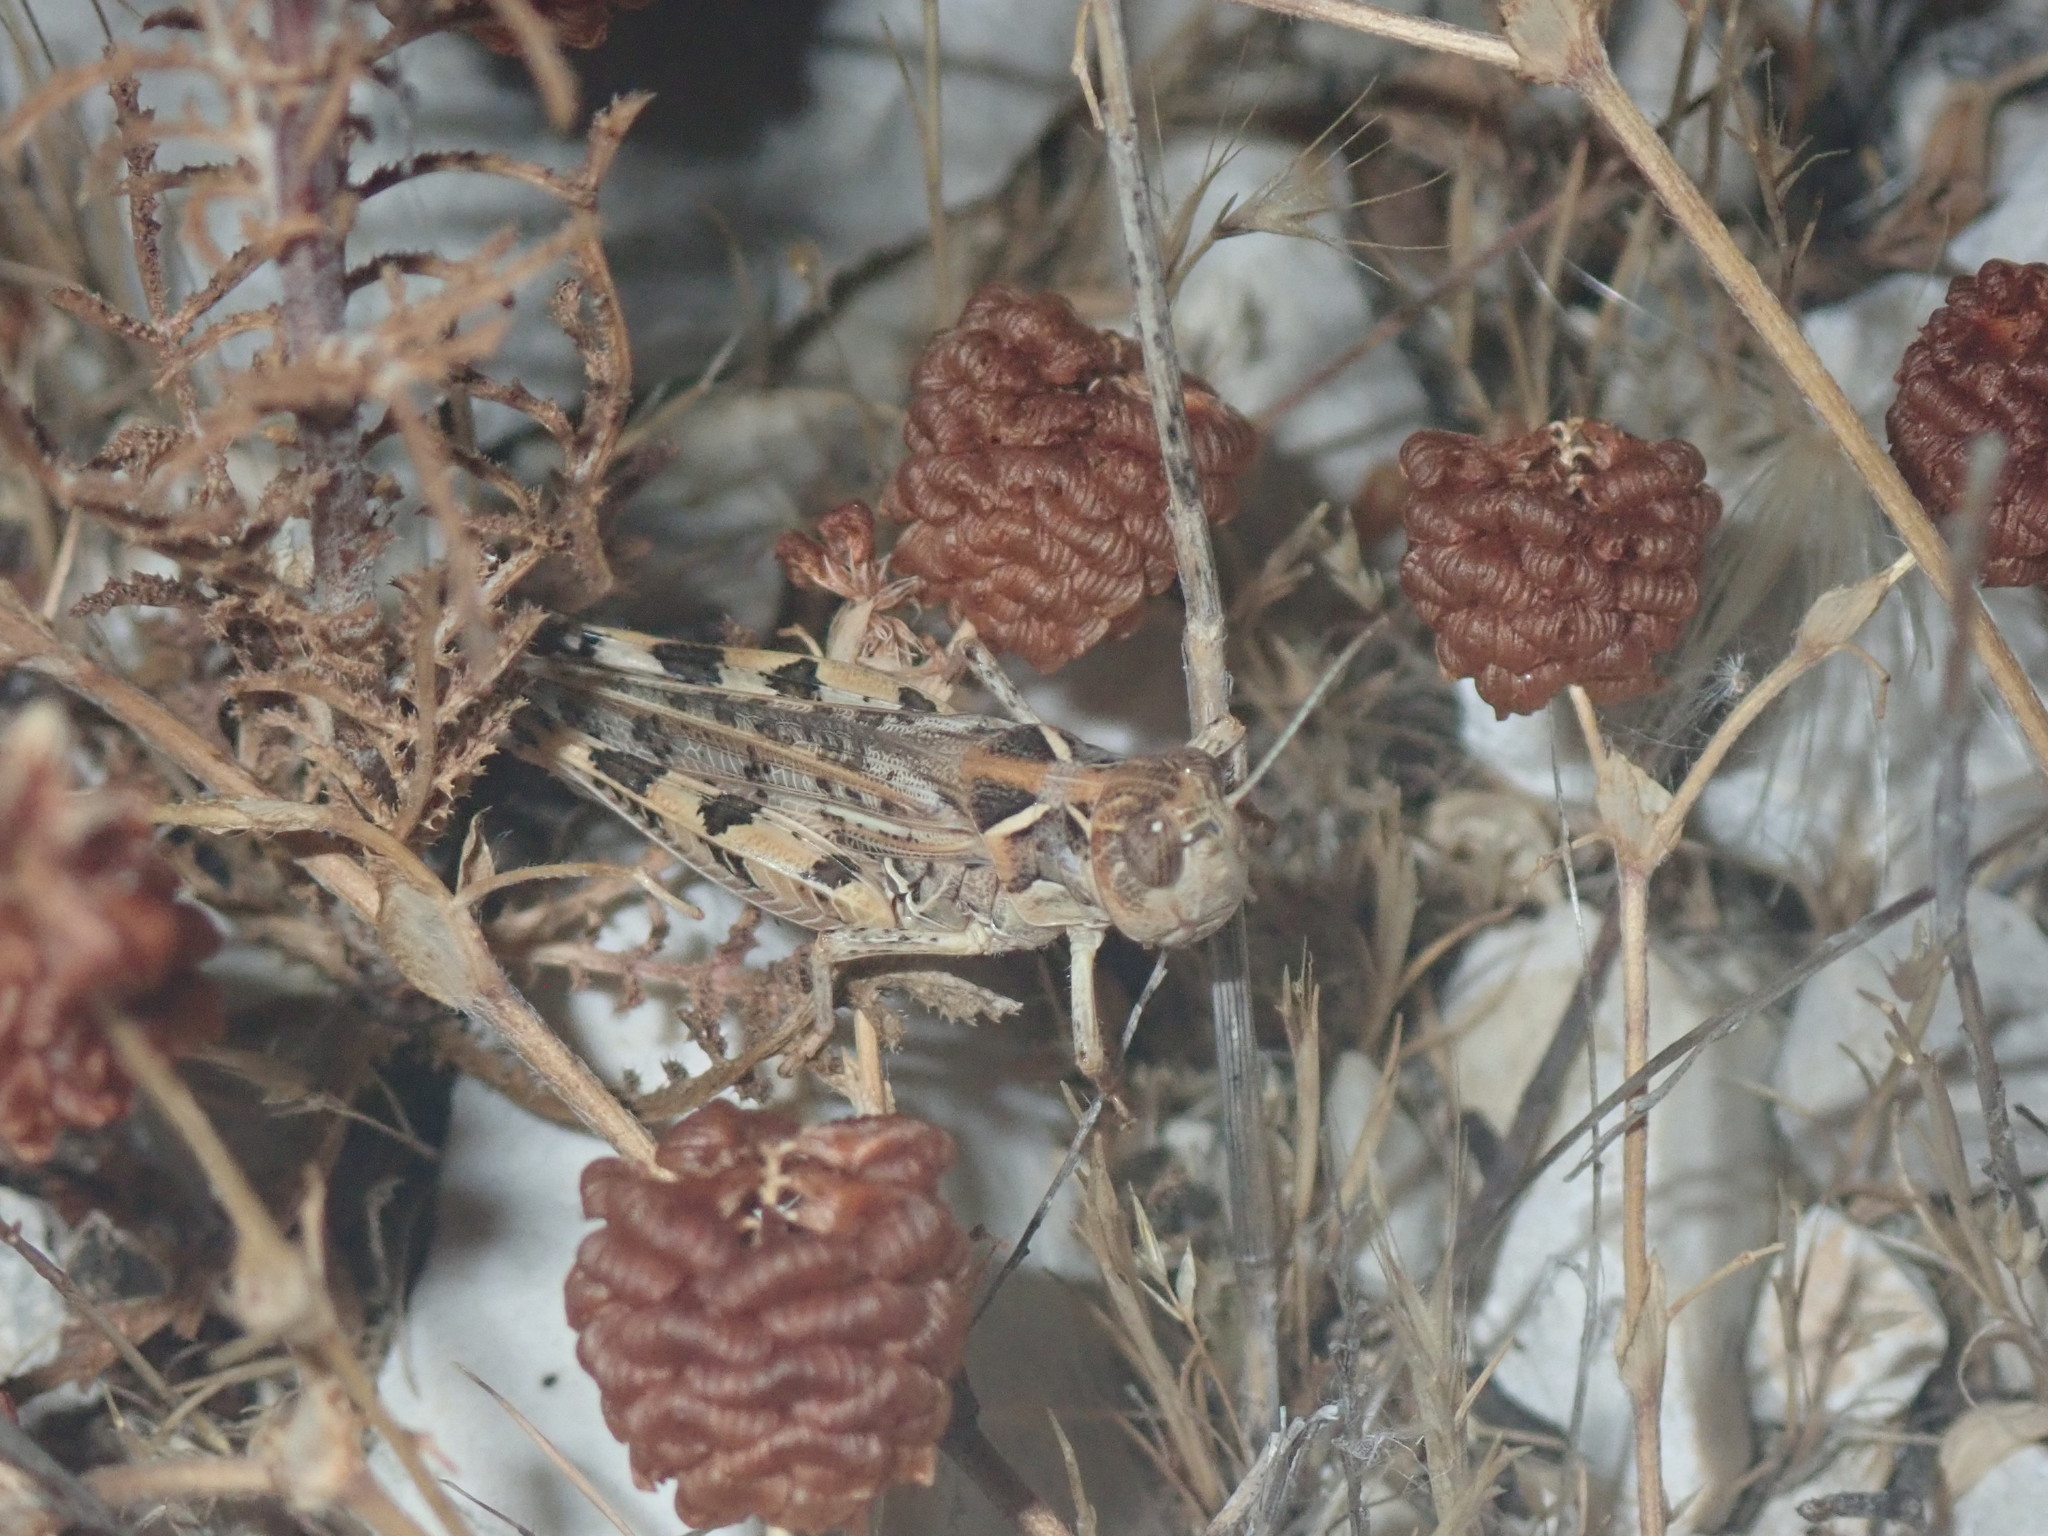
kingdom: Animalia
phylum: Arthropoda
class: Insecta
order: Orthoptera
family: Acrididae
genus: Dociostaurus
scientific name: Dociostaurus maroccanus
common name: Moroccan locust
